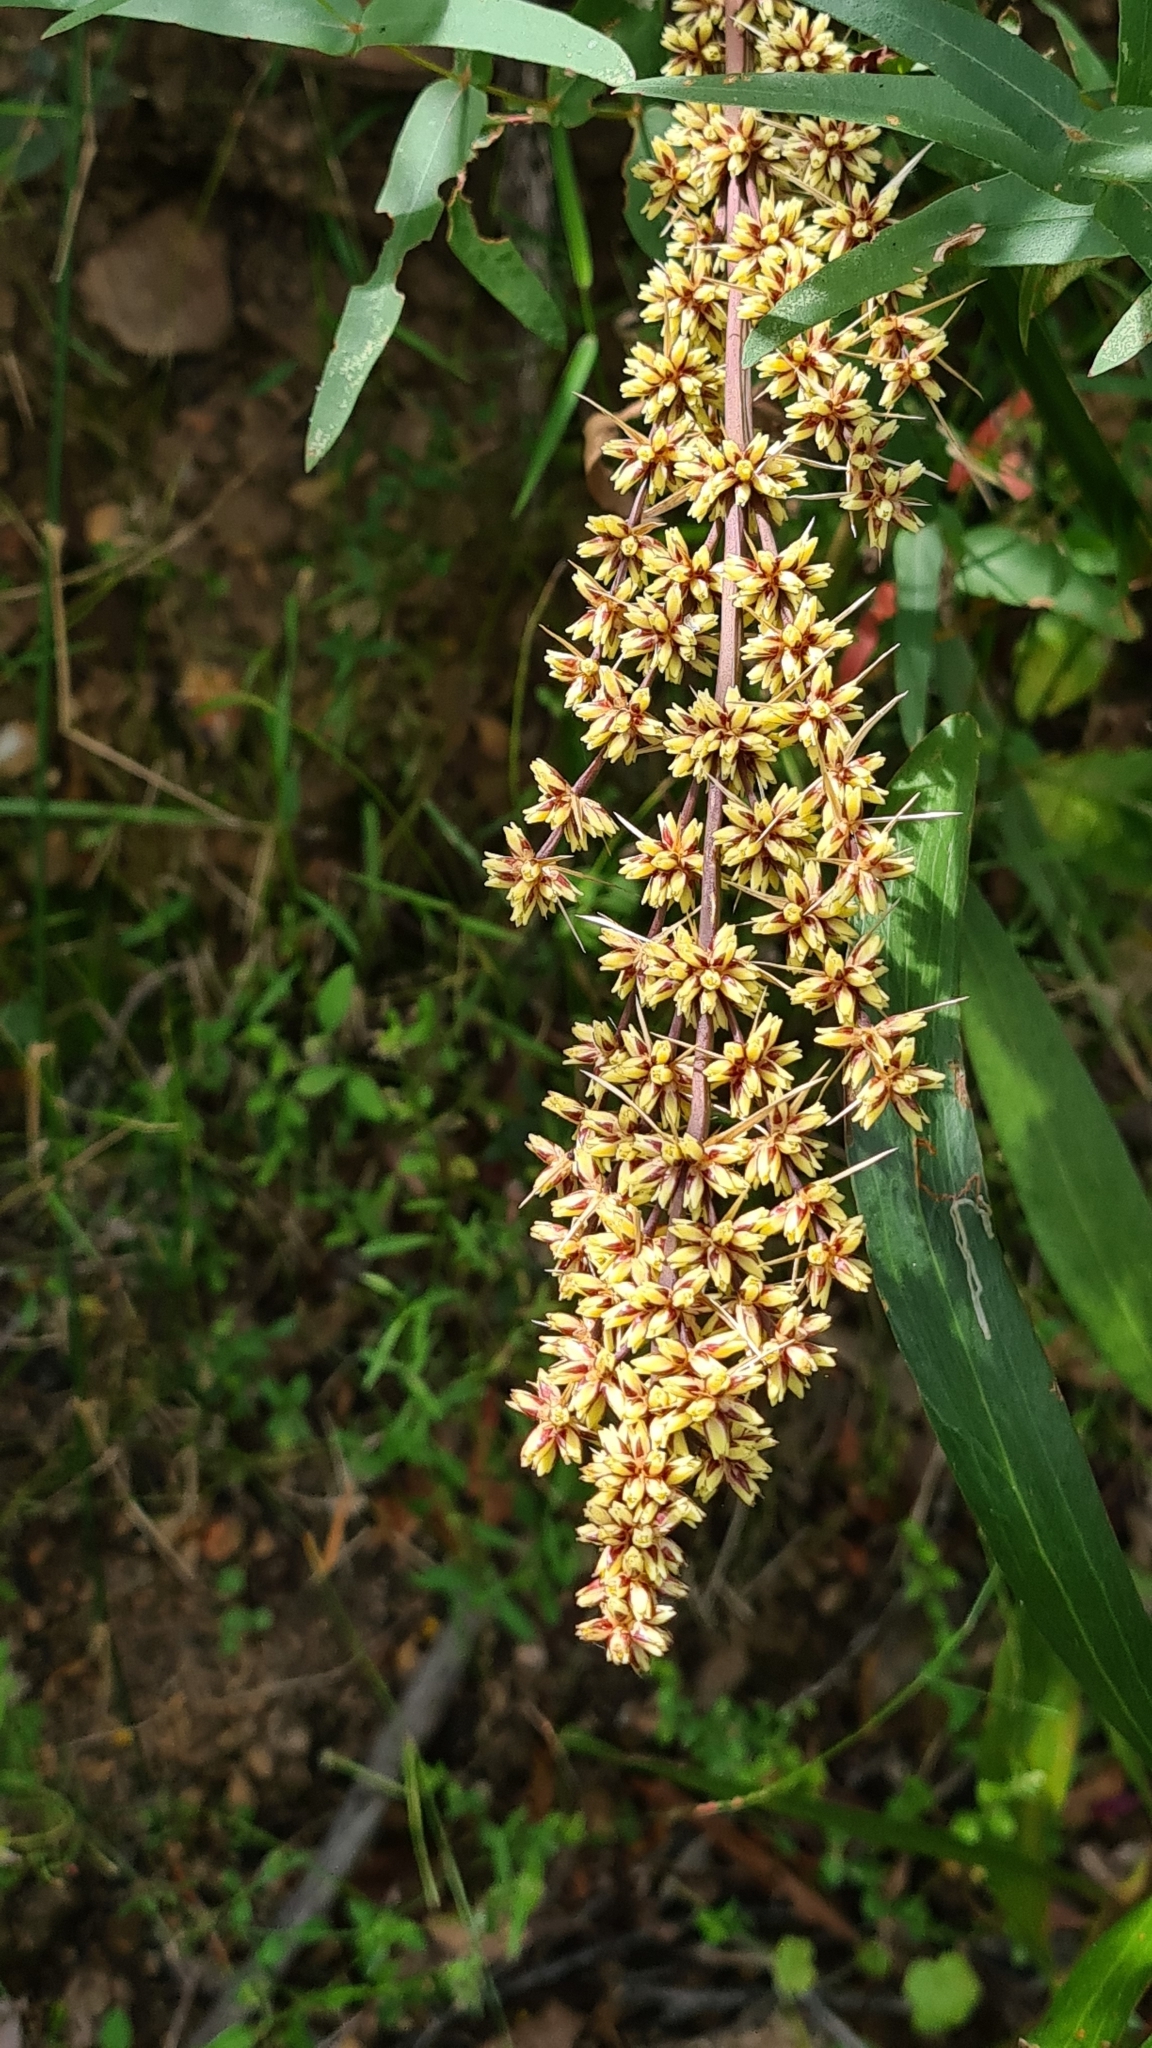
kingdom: Plantae
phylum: Tracheophyta
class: Liliopsida
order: Asparagales
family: Asparagaceae
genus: Lomandra
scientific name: Lomandra longifolia
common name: Longleaf mat-rush
